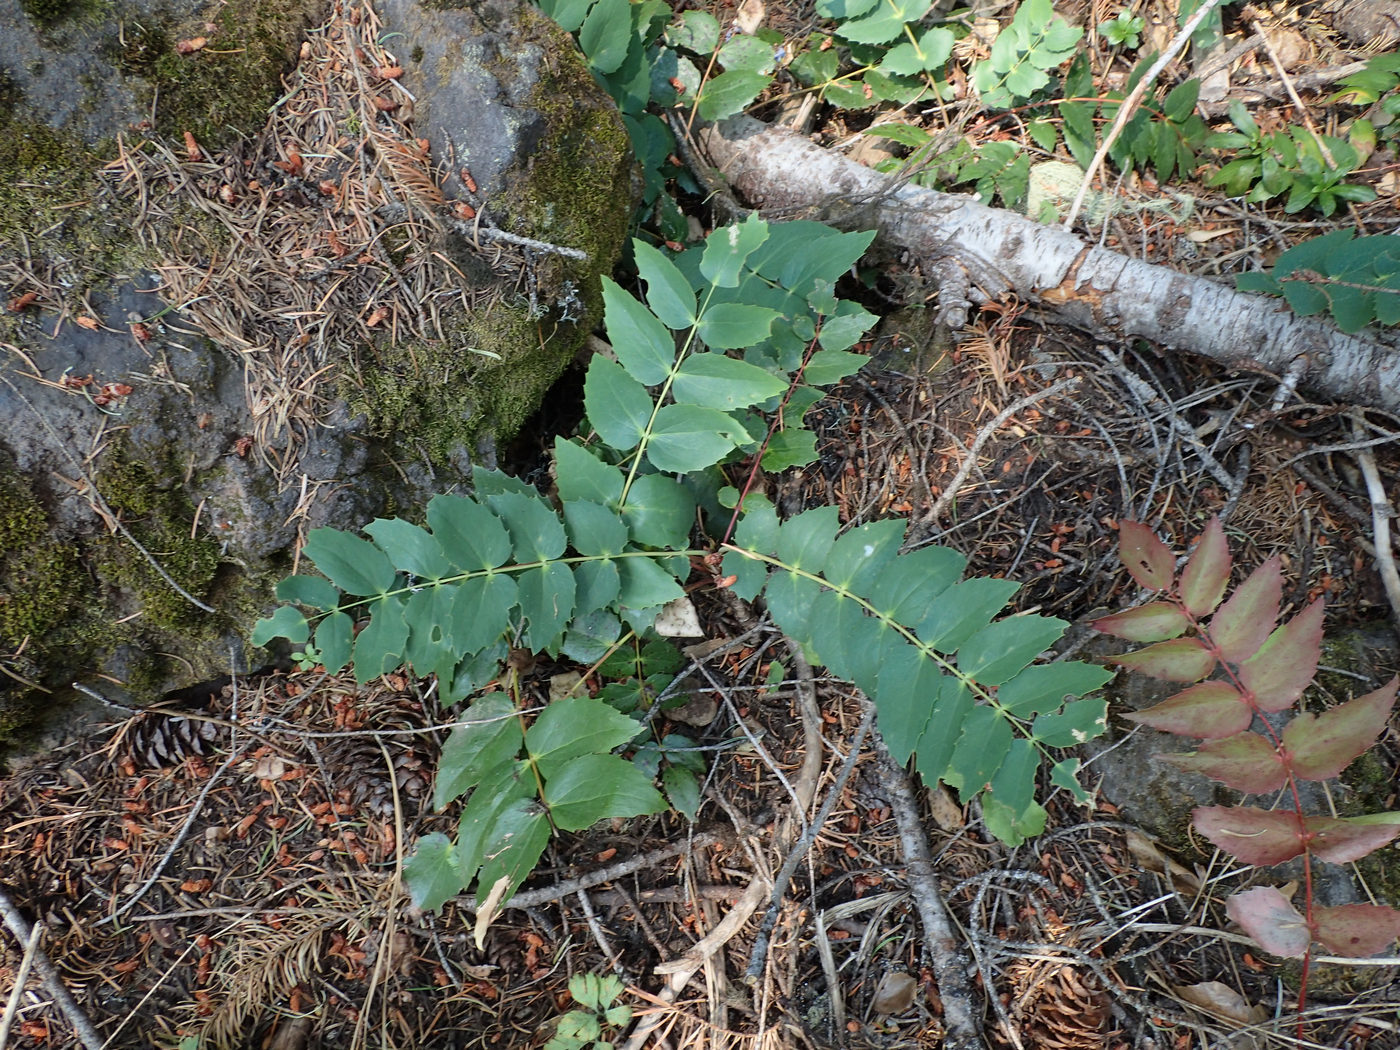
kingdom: Plantae
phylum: Tracheophyta
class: Magnoliopsida
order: Ranunculales
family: Berberidaceae
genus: Mahonia
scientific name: Mahonia nervosa
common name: Cascade oregon-grape
